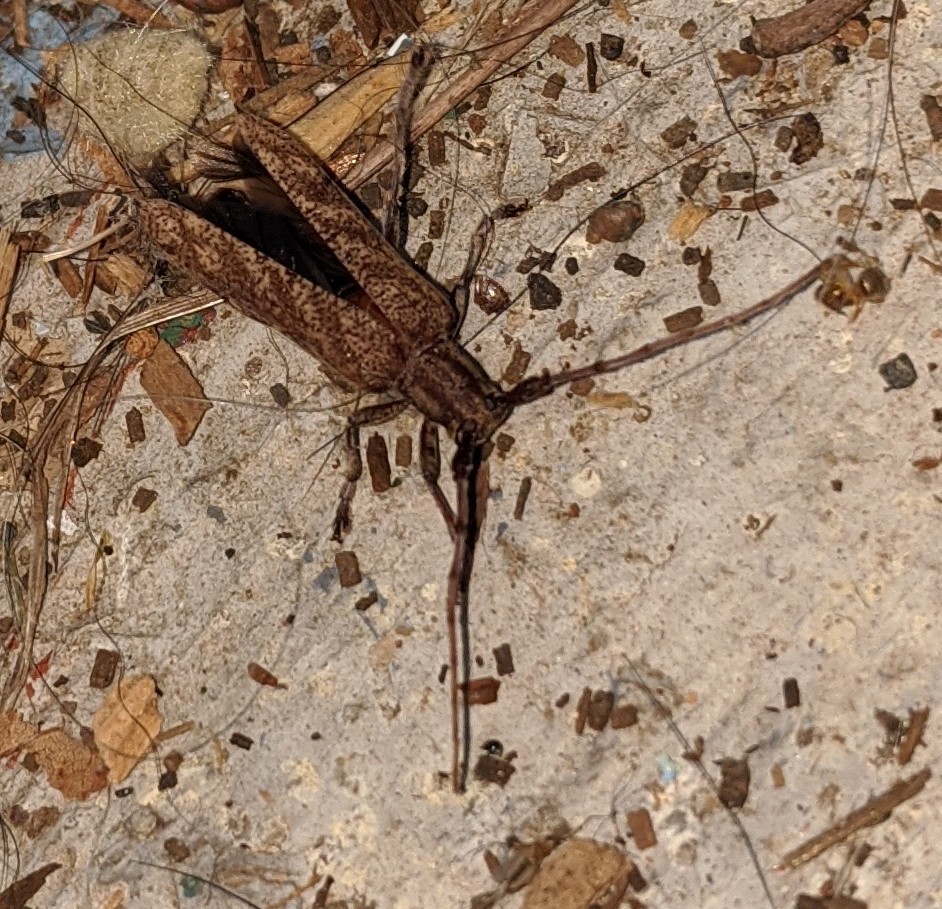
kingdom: Animalia
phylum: Arthropoda
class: Insecta
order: Coleoptera
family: Cerambycidae
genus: Saperda
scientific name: Saperda obliqua
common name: Alder borer
